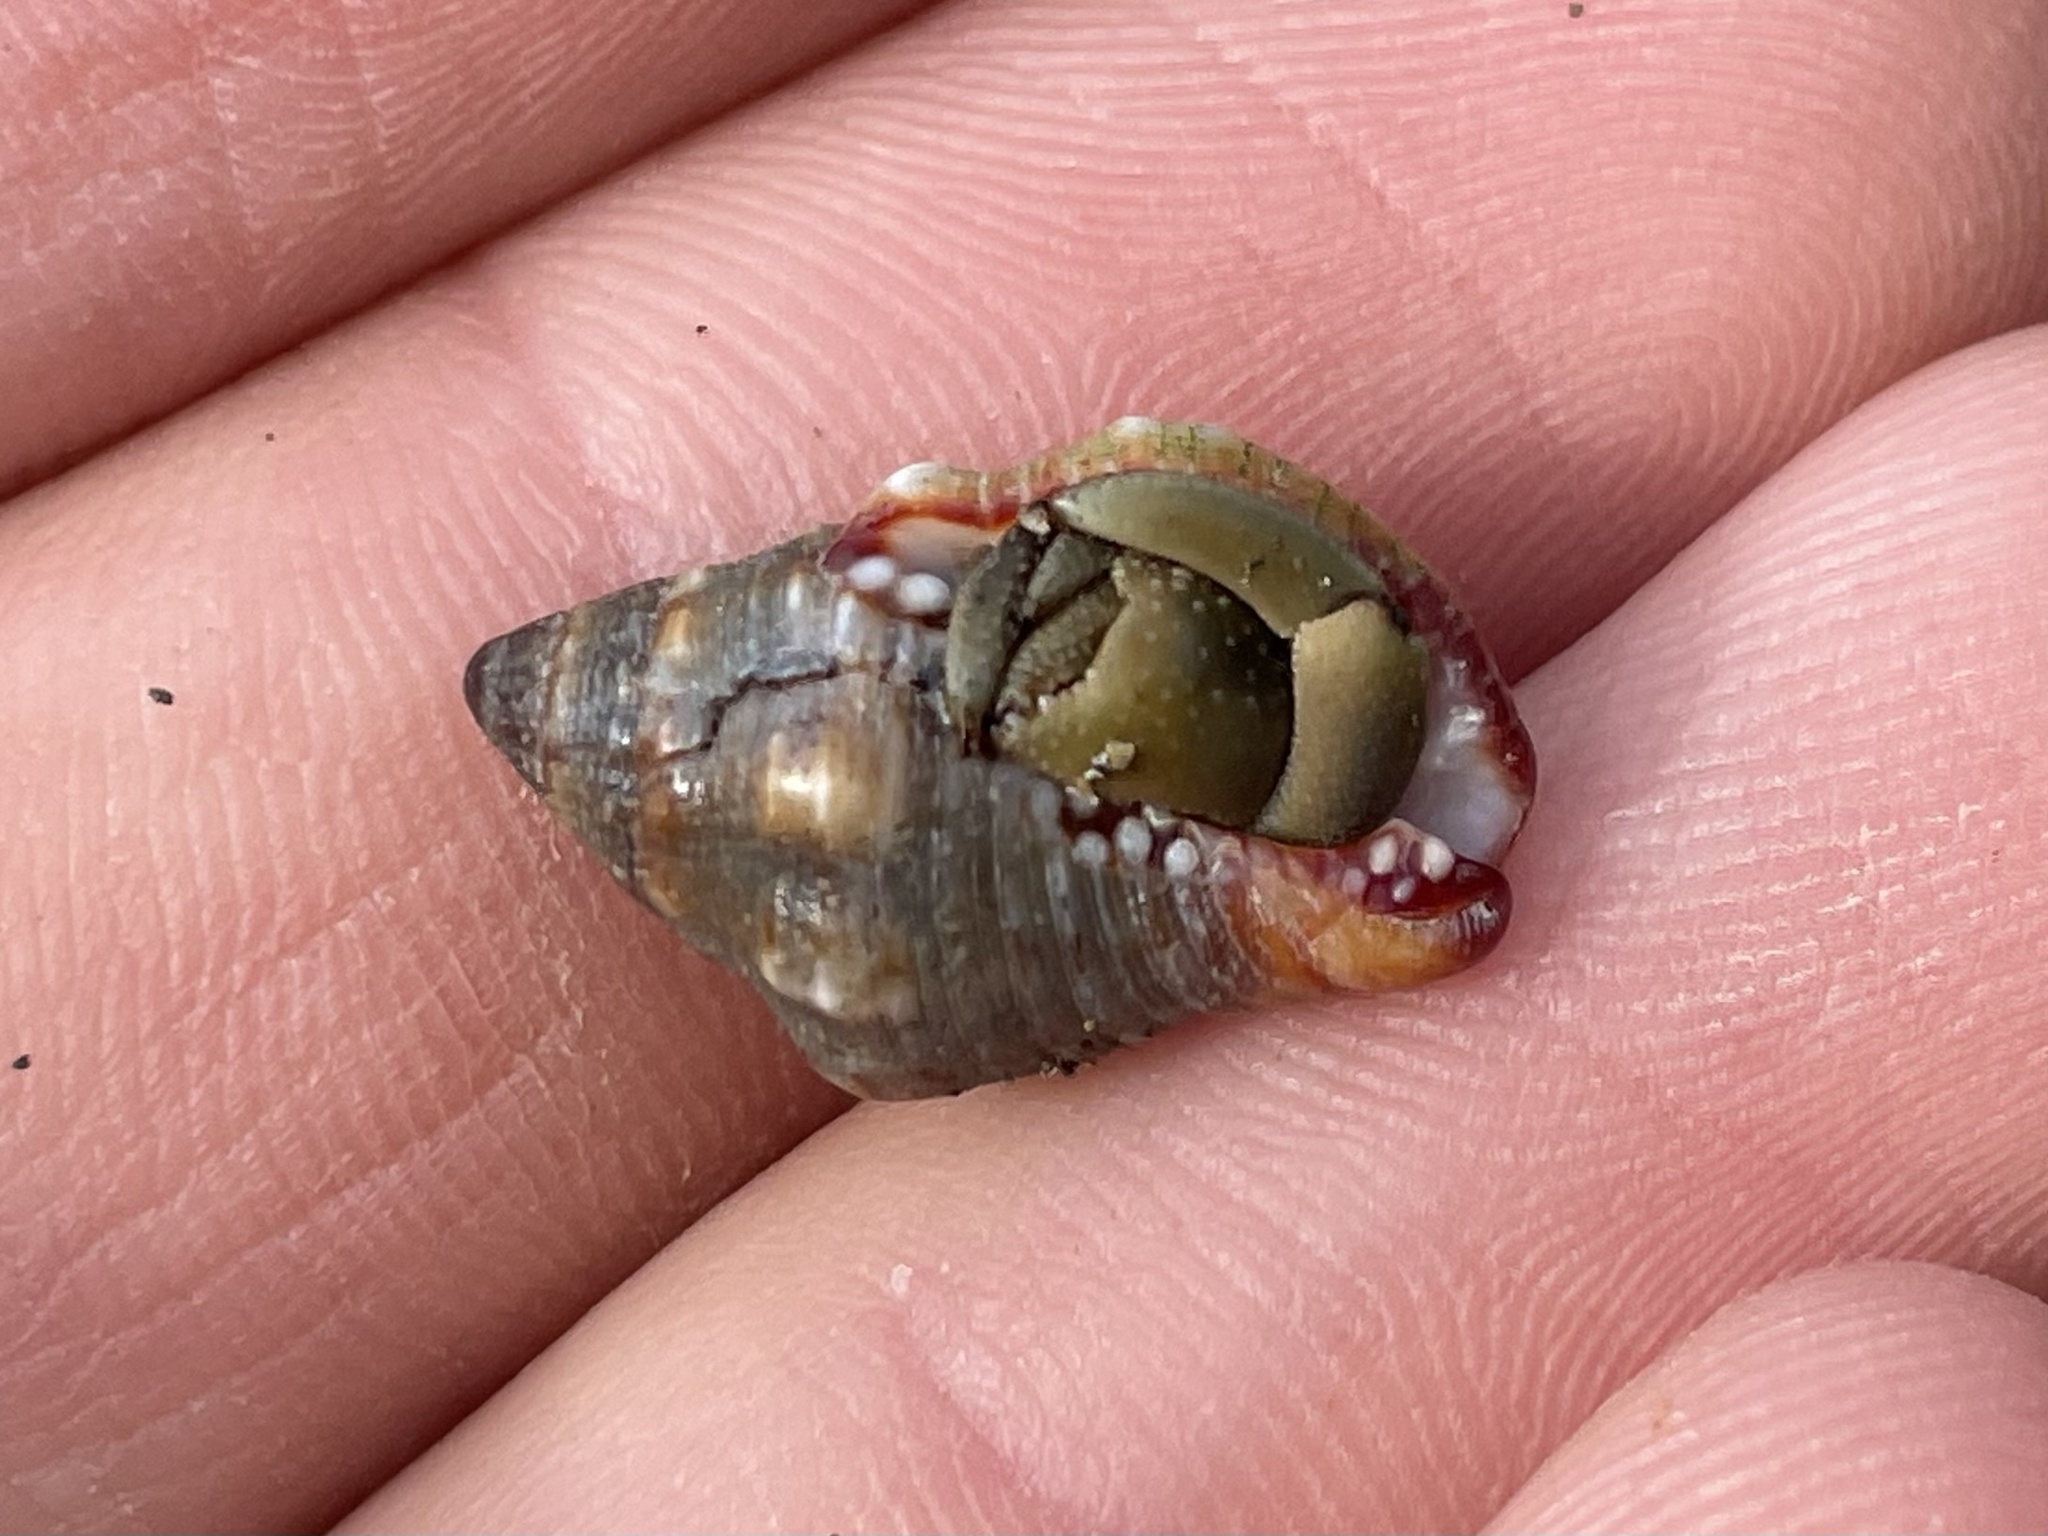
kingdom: Animalia
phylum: Arthropoda
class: Malacostraca
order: Decapoda
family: Coenobitidae
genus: Coenobita
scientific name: Coenobita compressus
